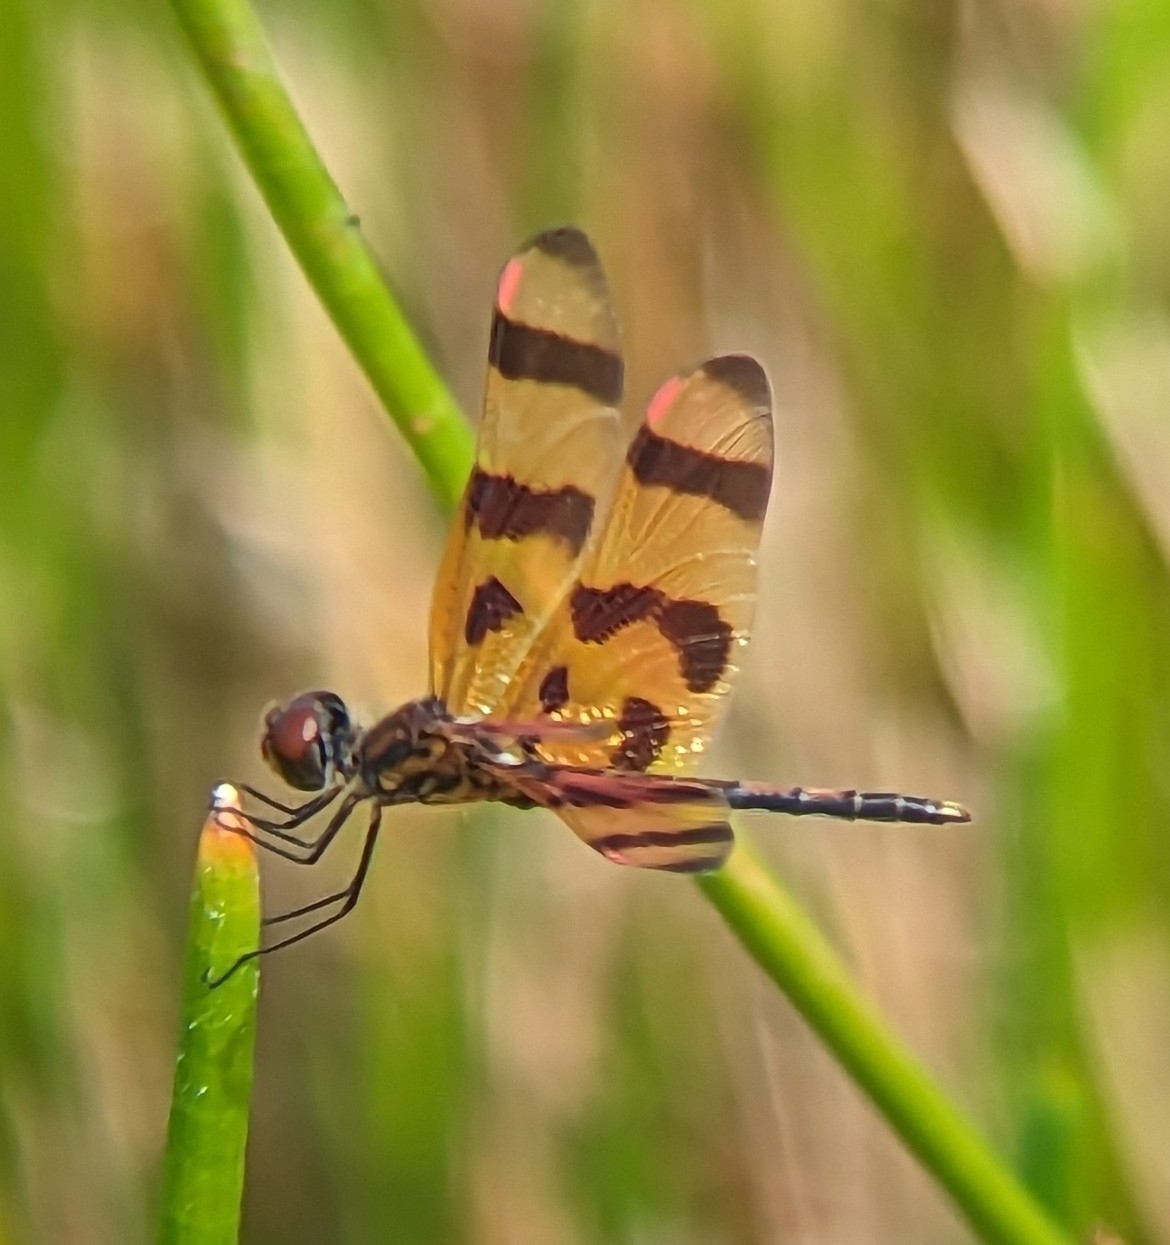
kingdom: Animalia
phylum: Arthropoda
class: Insecta
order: Odonata
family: Libellulidae
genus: Celithemis
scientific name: Celithemis eponina
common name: Halloween pennant
